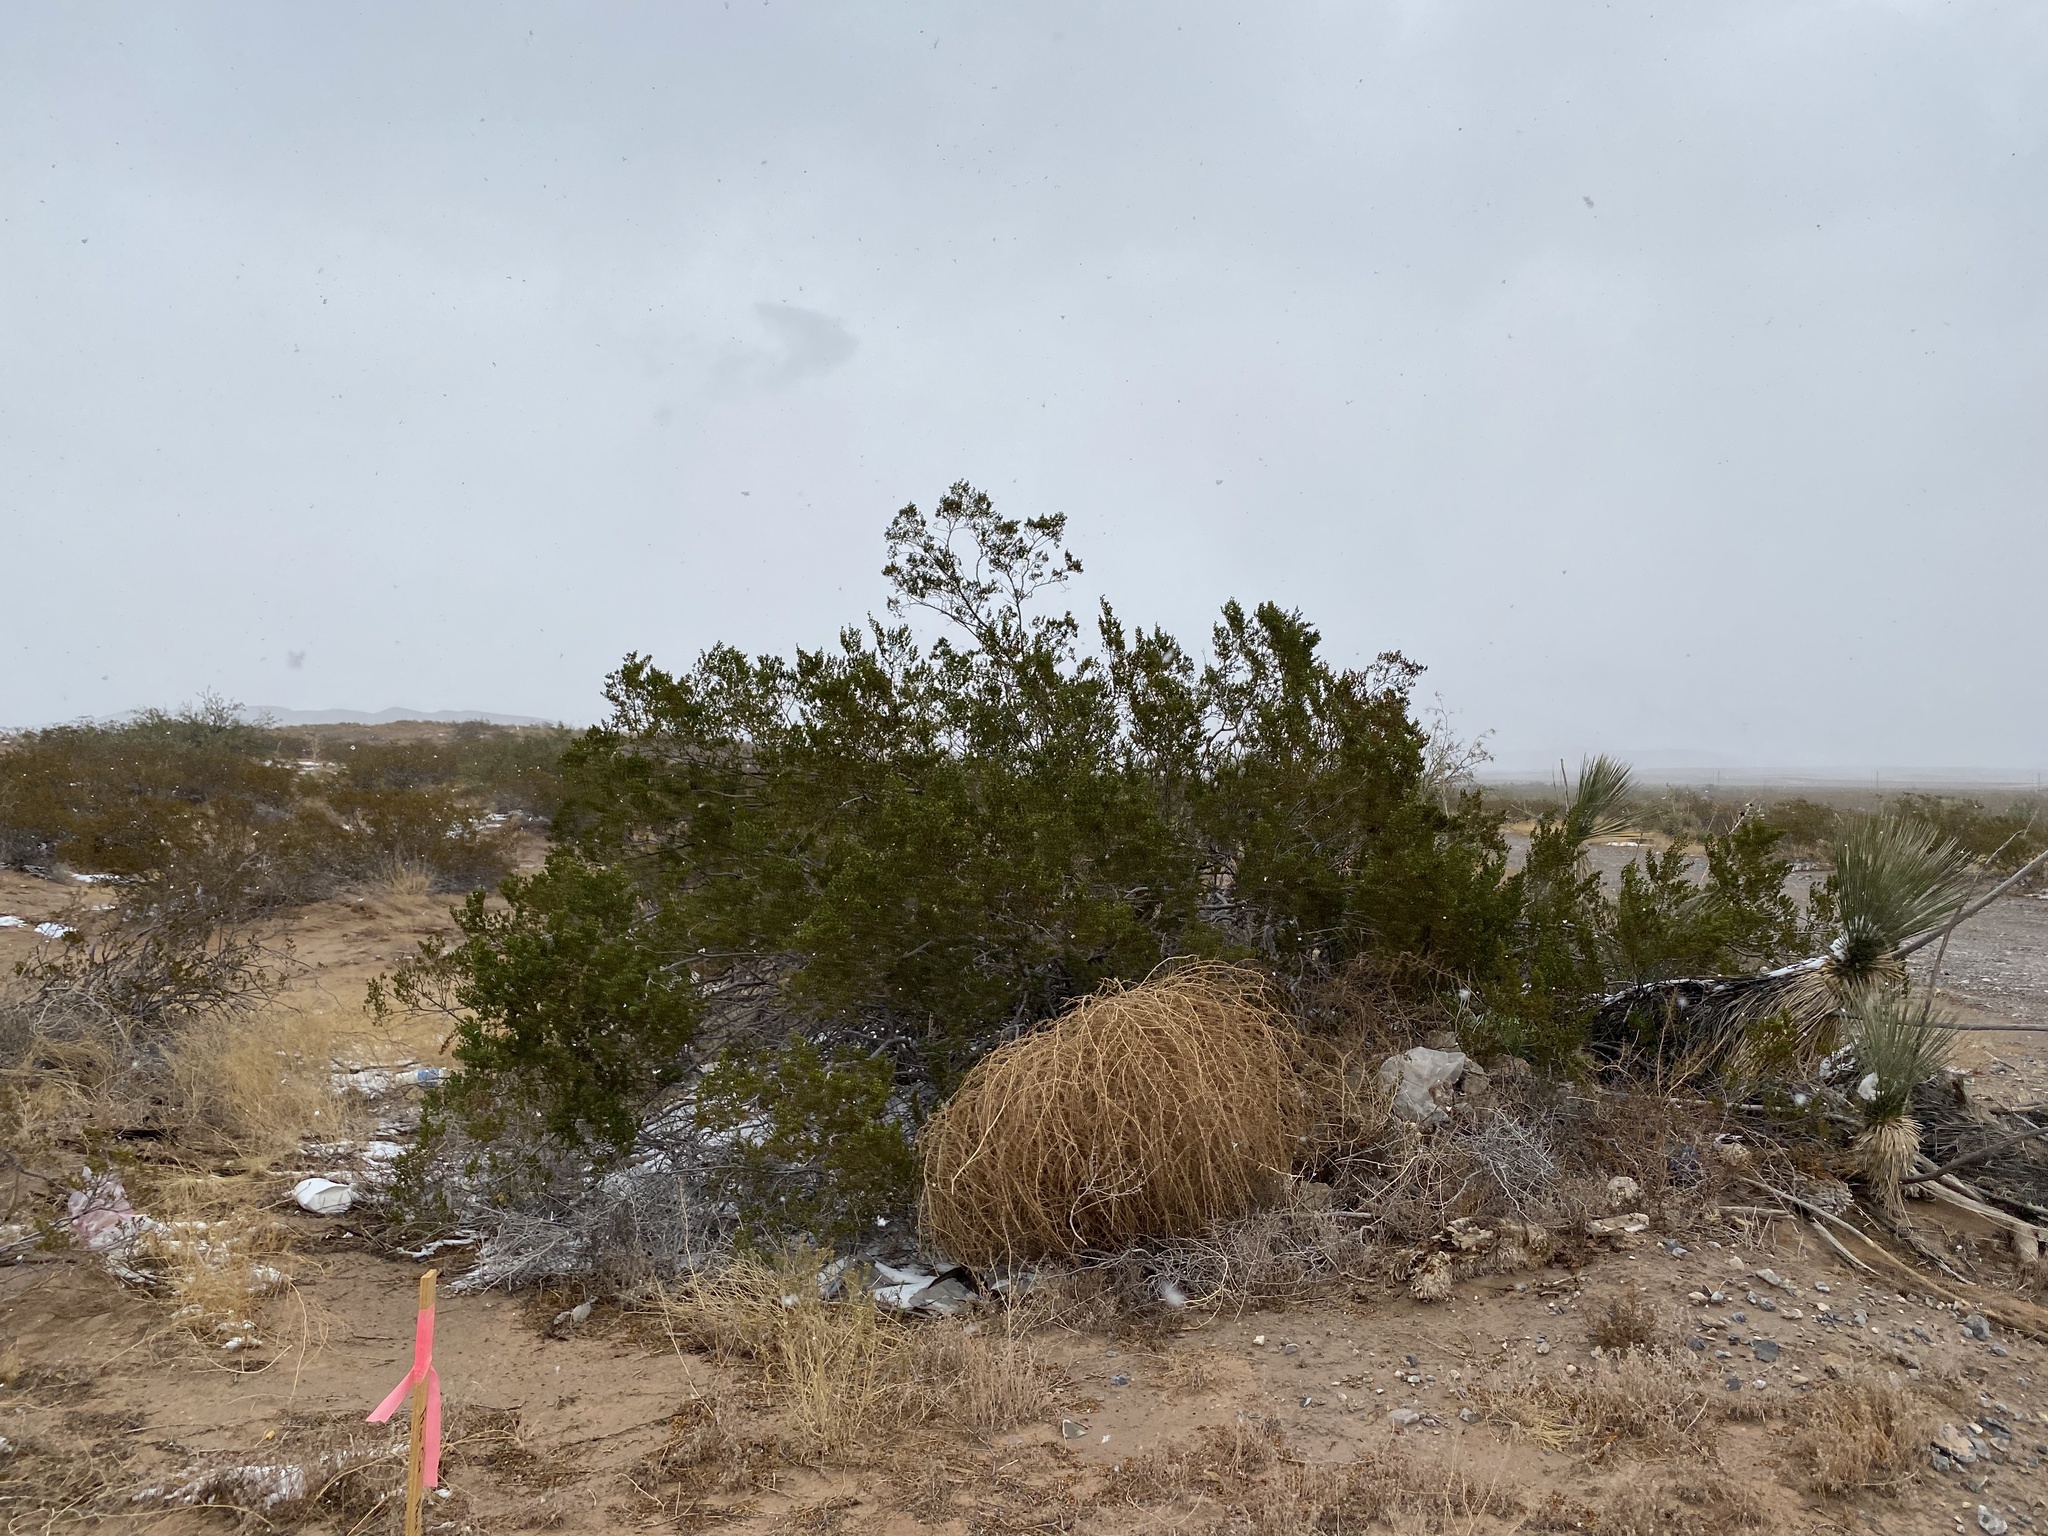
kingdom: Plantae
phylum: Tracheophyta
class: Magnoliopsida
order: Zygophyllales
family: Zygophyllaceae
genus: Larrea
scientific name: Larrea tridentata
